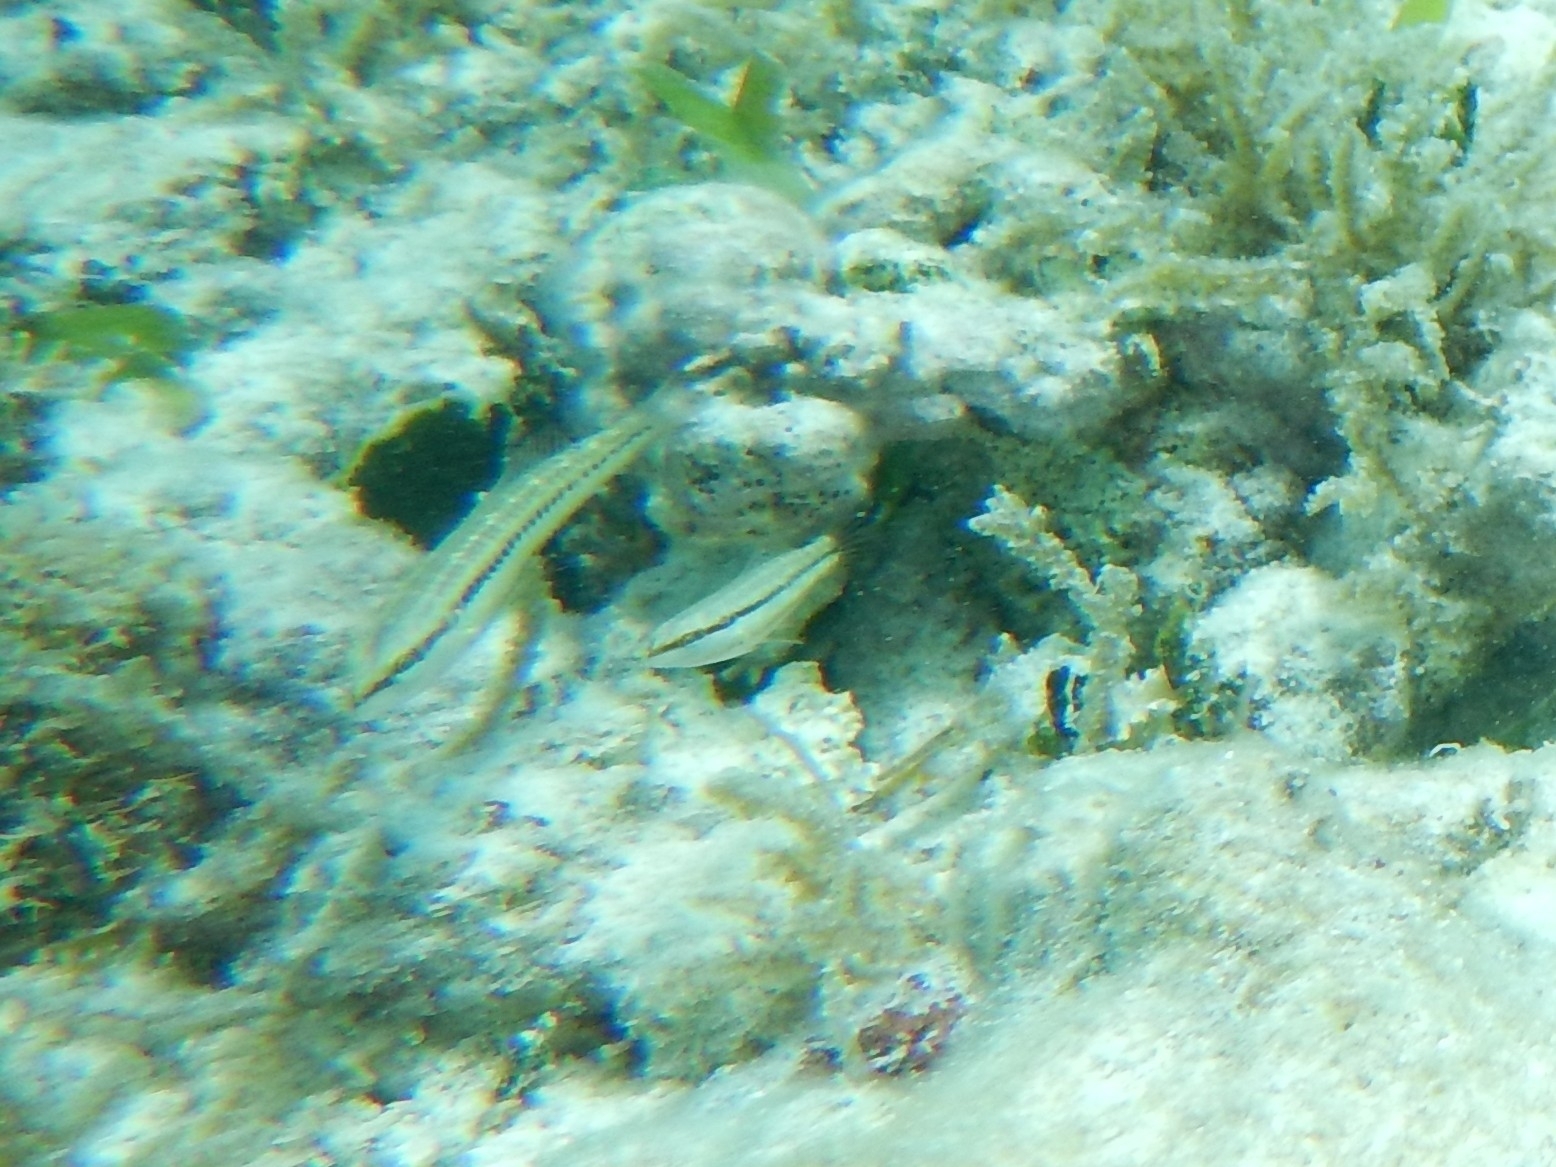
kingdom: Animalia
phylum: Chordata
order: Perciformes
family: Labridae
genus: Halichoeres
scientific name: Halichoeres bivittatus
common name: Slippery dick
